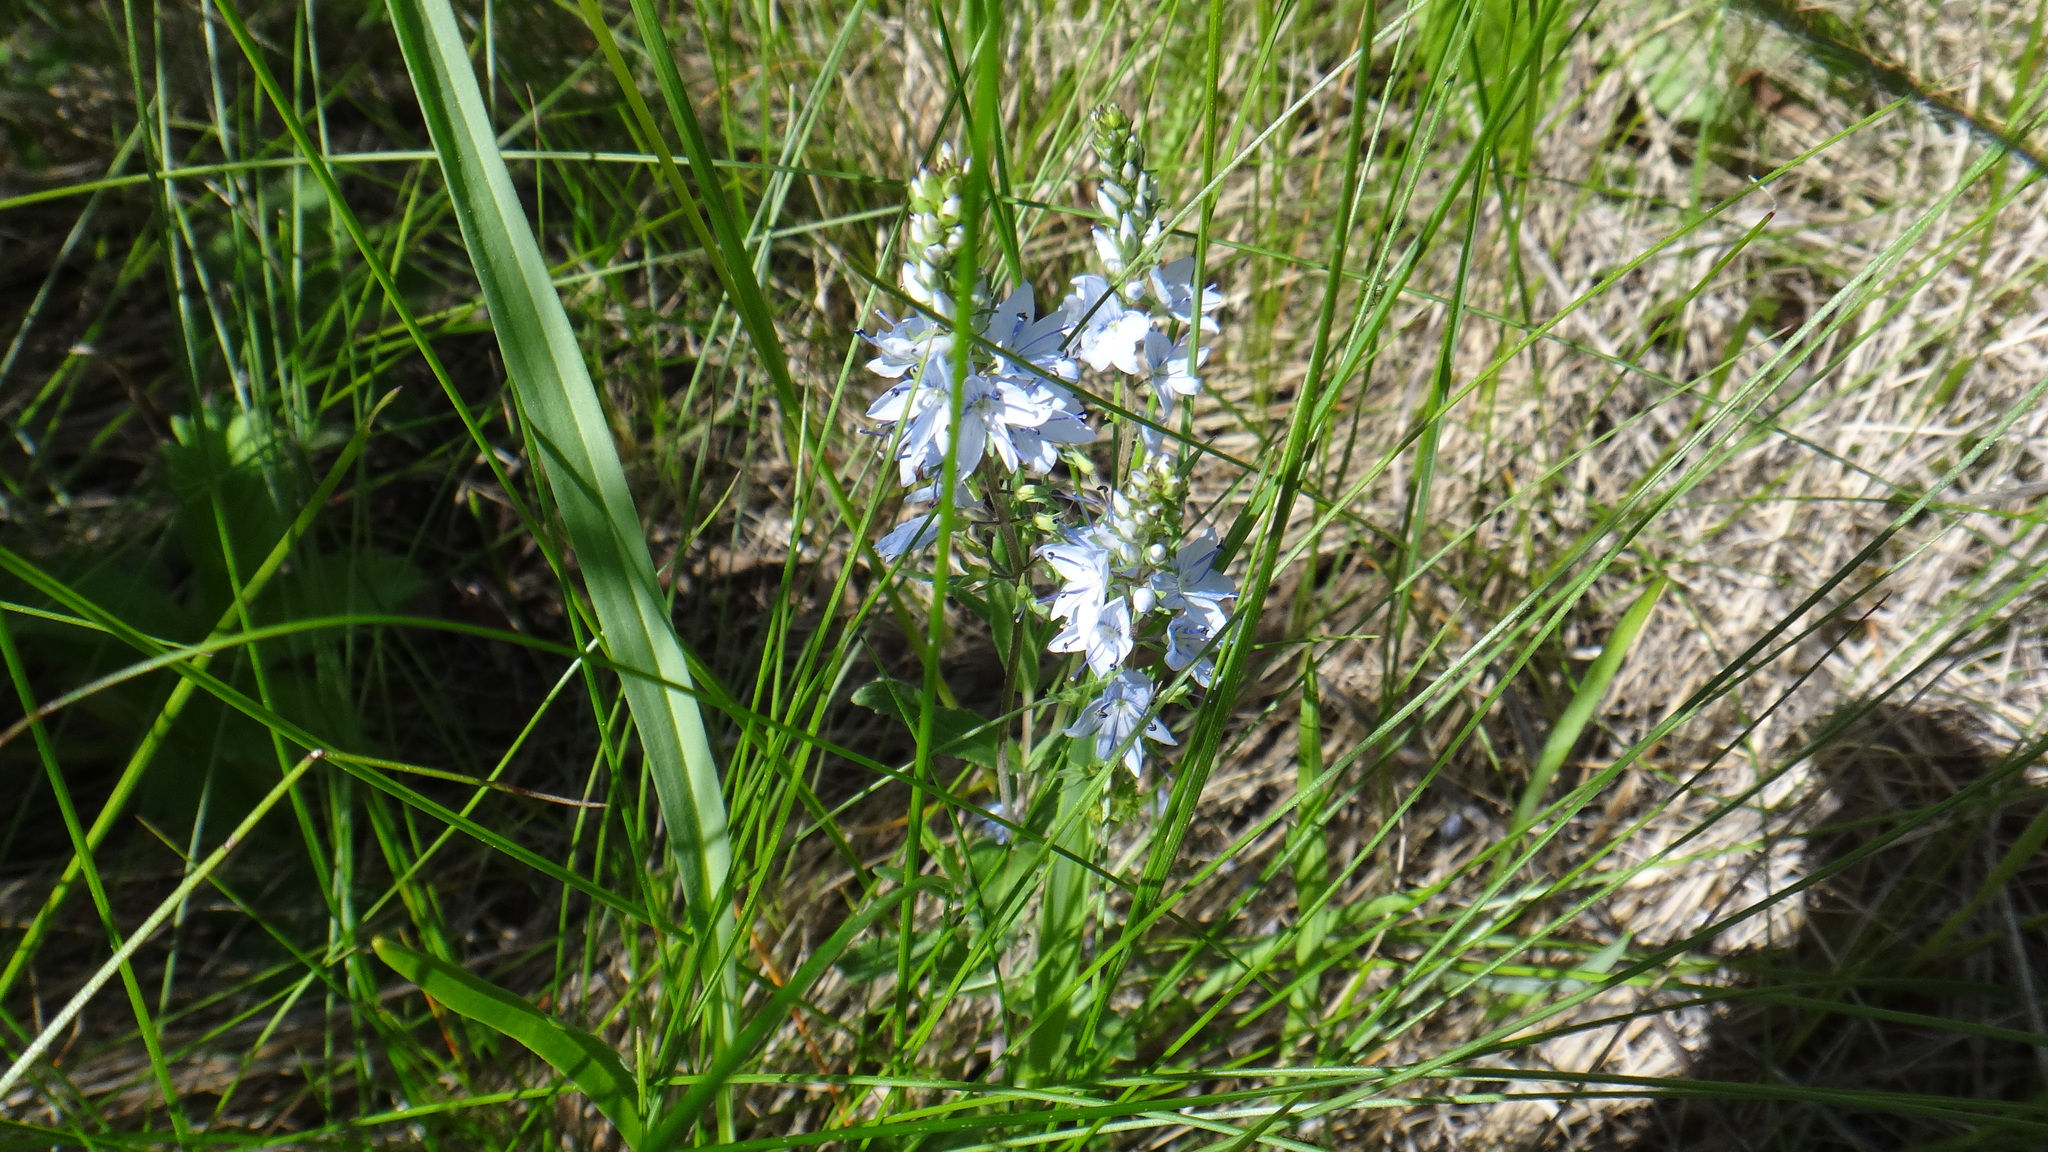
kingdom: Plantae
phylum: Tracheophyta
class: Magnoliopsida
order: Lamiales
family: Plantaginaceae
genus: Veronica
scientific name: Veronica prostrata
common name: Prostrate speedwell
